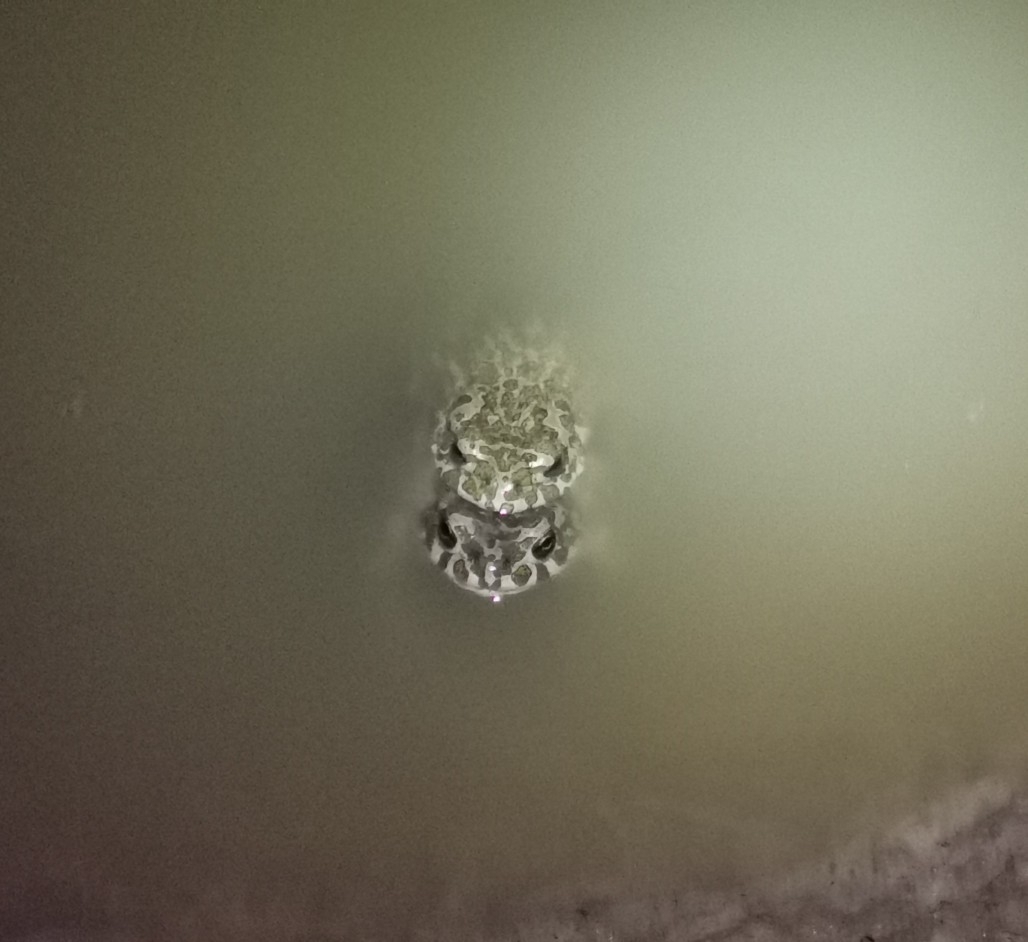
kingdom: Animalia
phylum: Chordata
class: Amphibia
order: Anura
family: Bufonidae
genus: Bufotes
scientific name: Bufotes viridis
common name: European green toad
